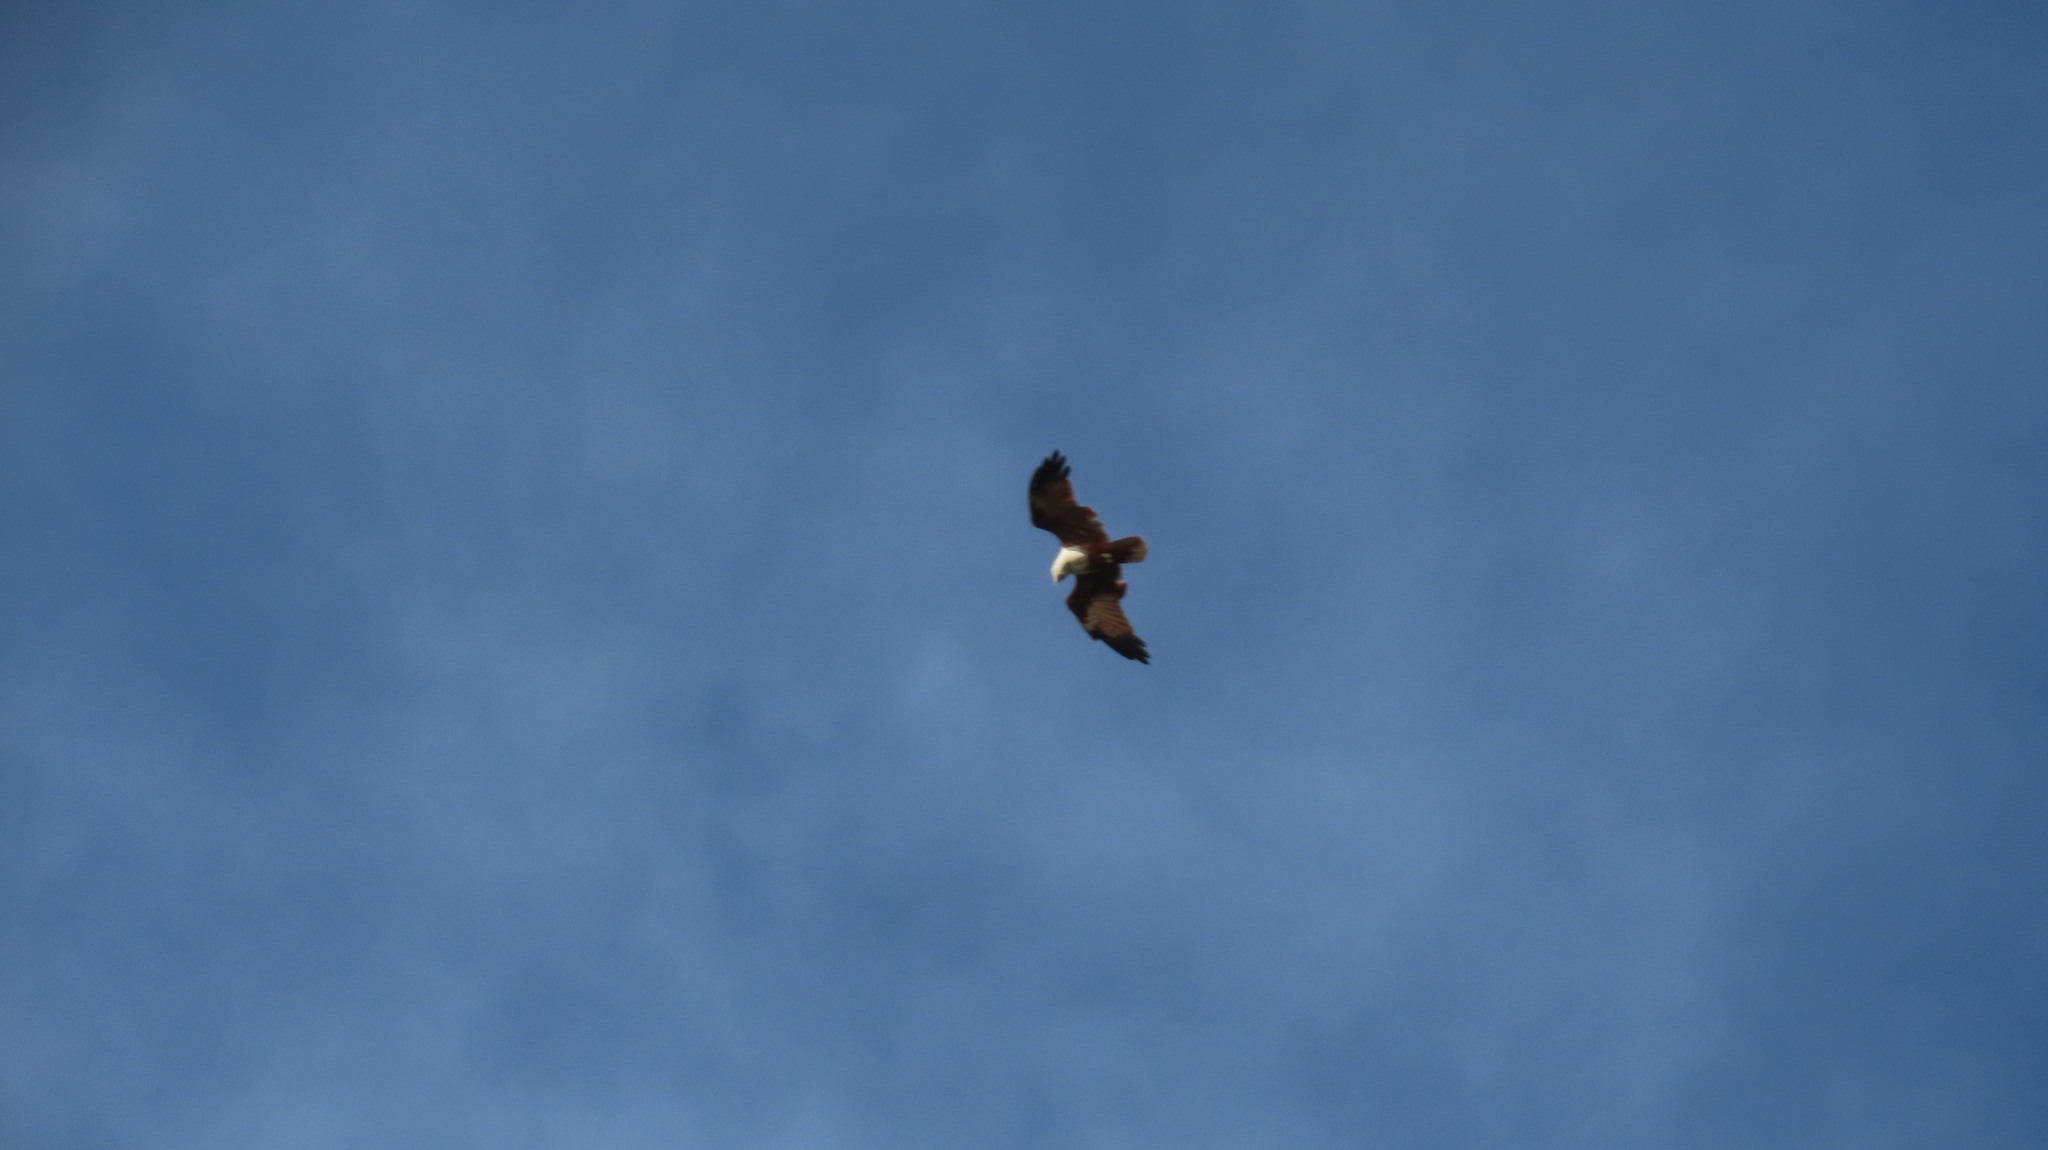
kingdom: Animalia
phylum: Chordata
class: Aves
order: Accipitriformes
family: Accipitridae
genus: Haliastur
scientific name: Haliastur indus
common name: Brahminy kite
